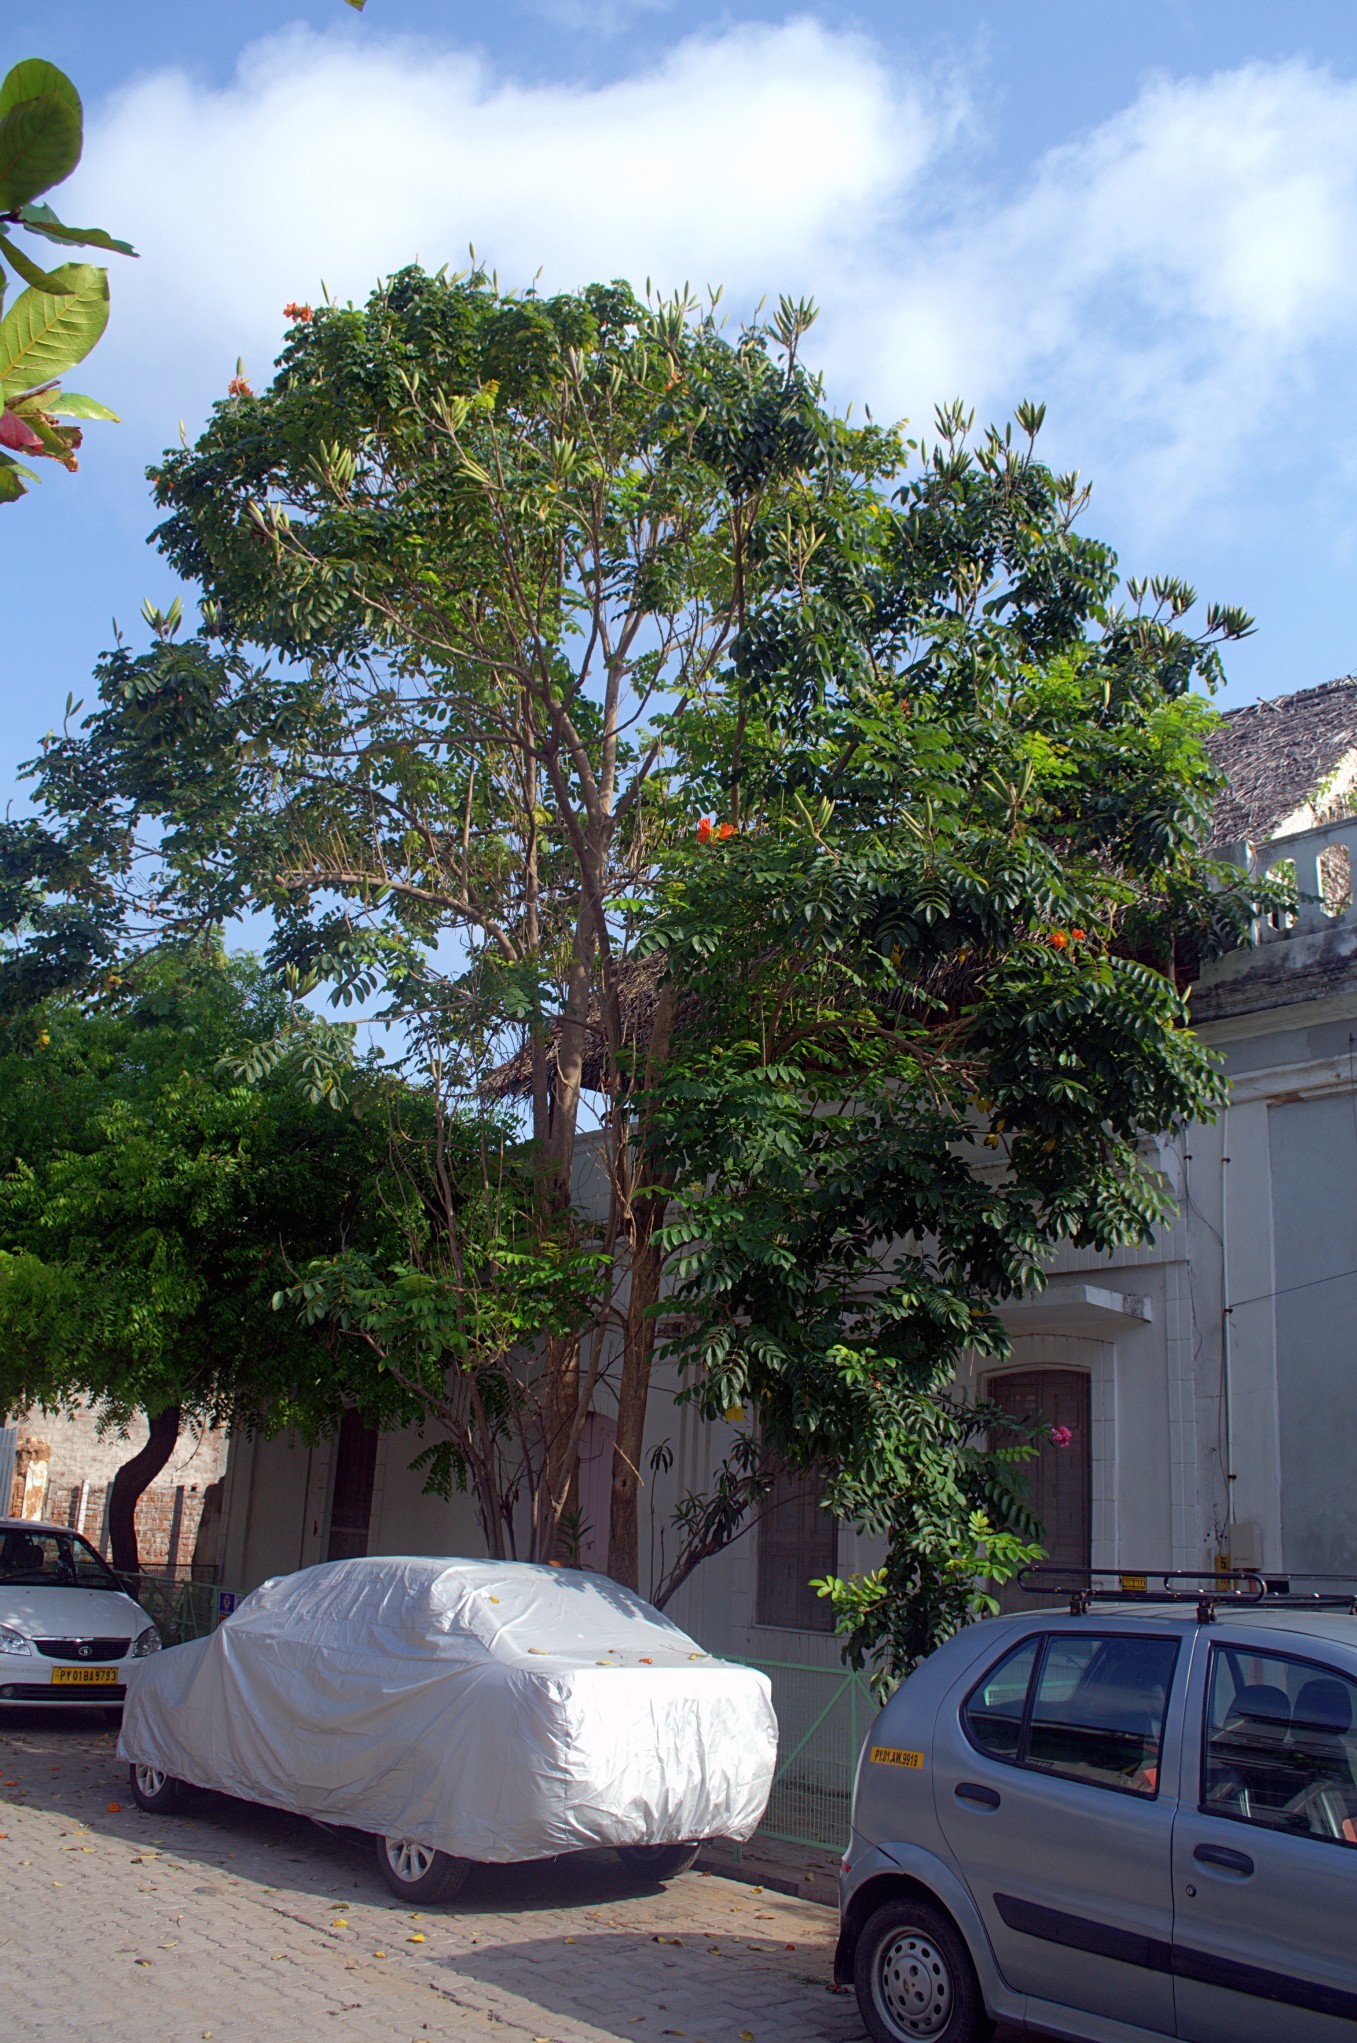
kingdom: Plantae
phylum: Tracheophyta
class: Magnoliopsida
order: Lamiales
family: Bignoniaceae
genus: Spathodea
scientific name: Spathodea campanulata
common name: African tuliptree
